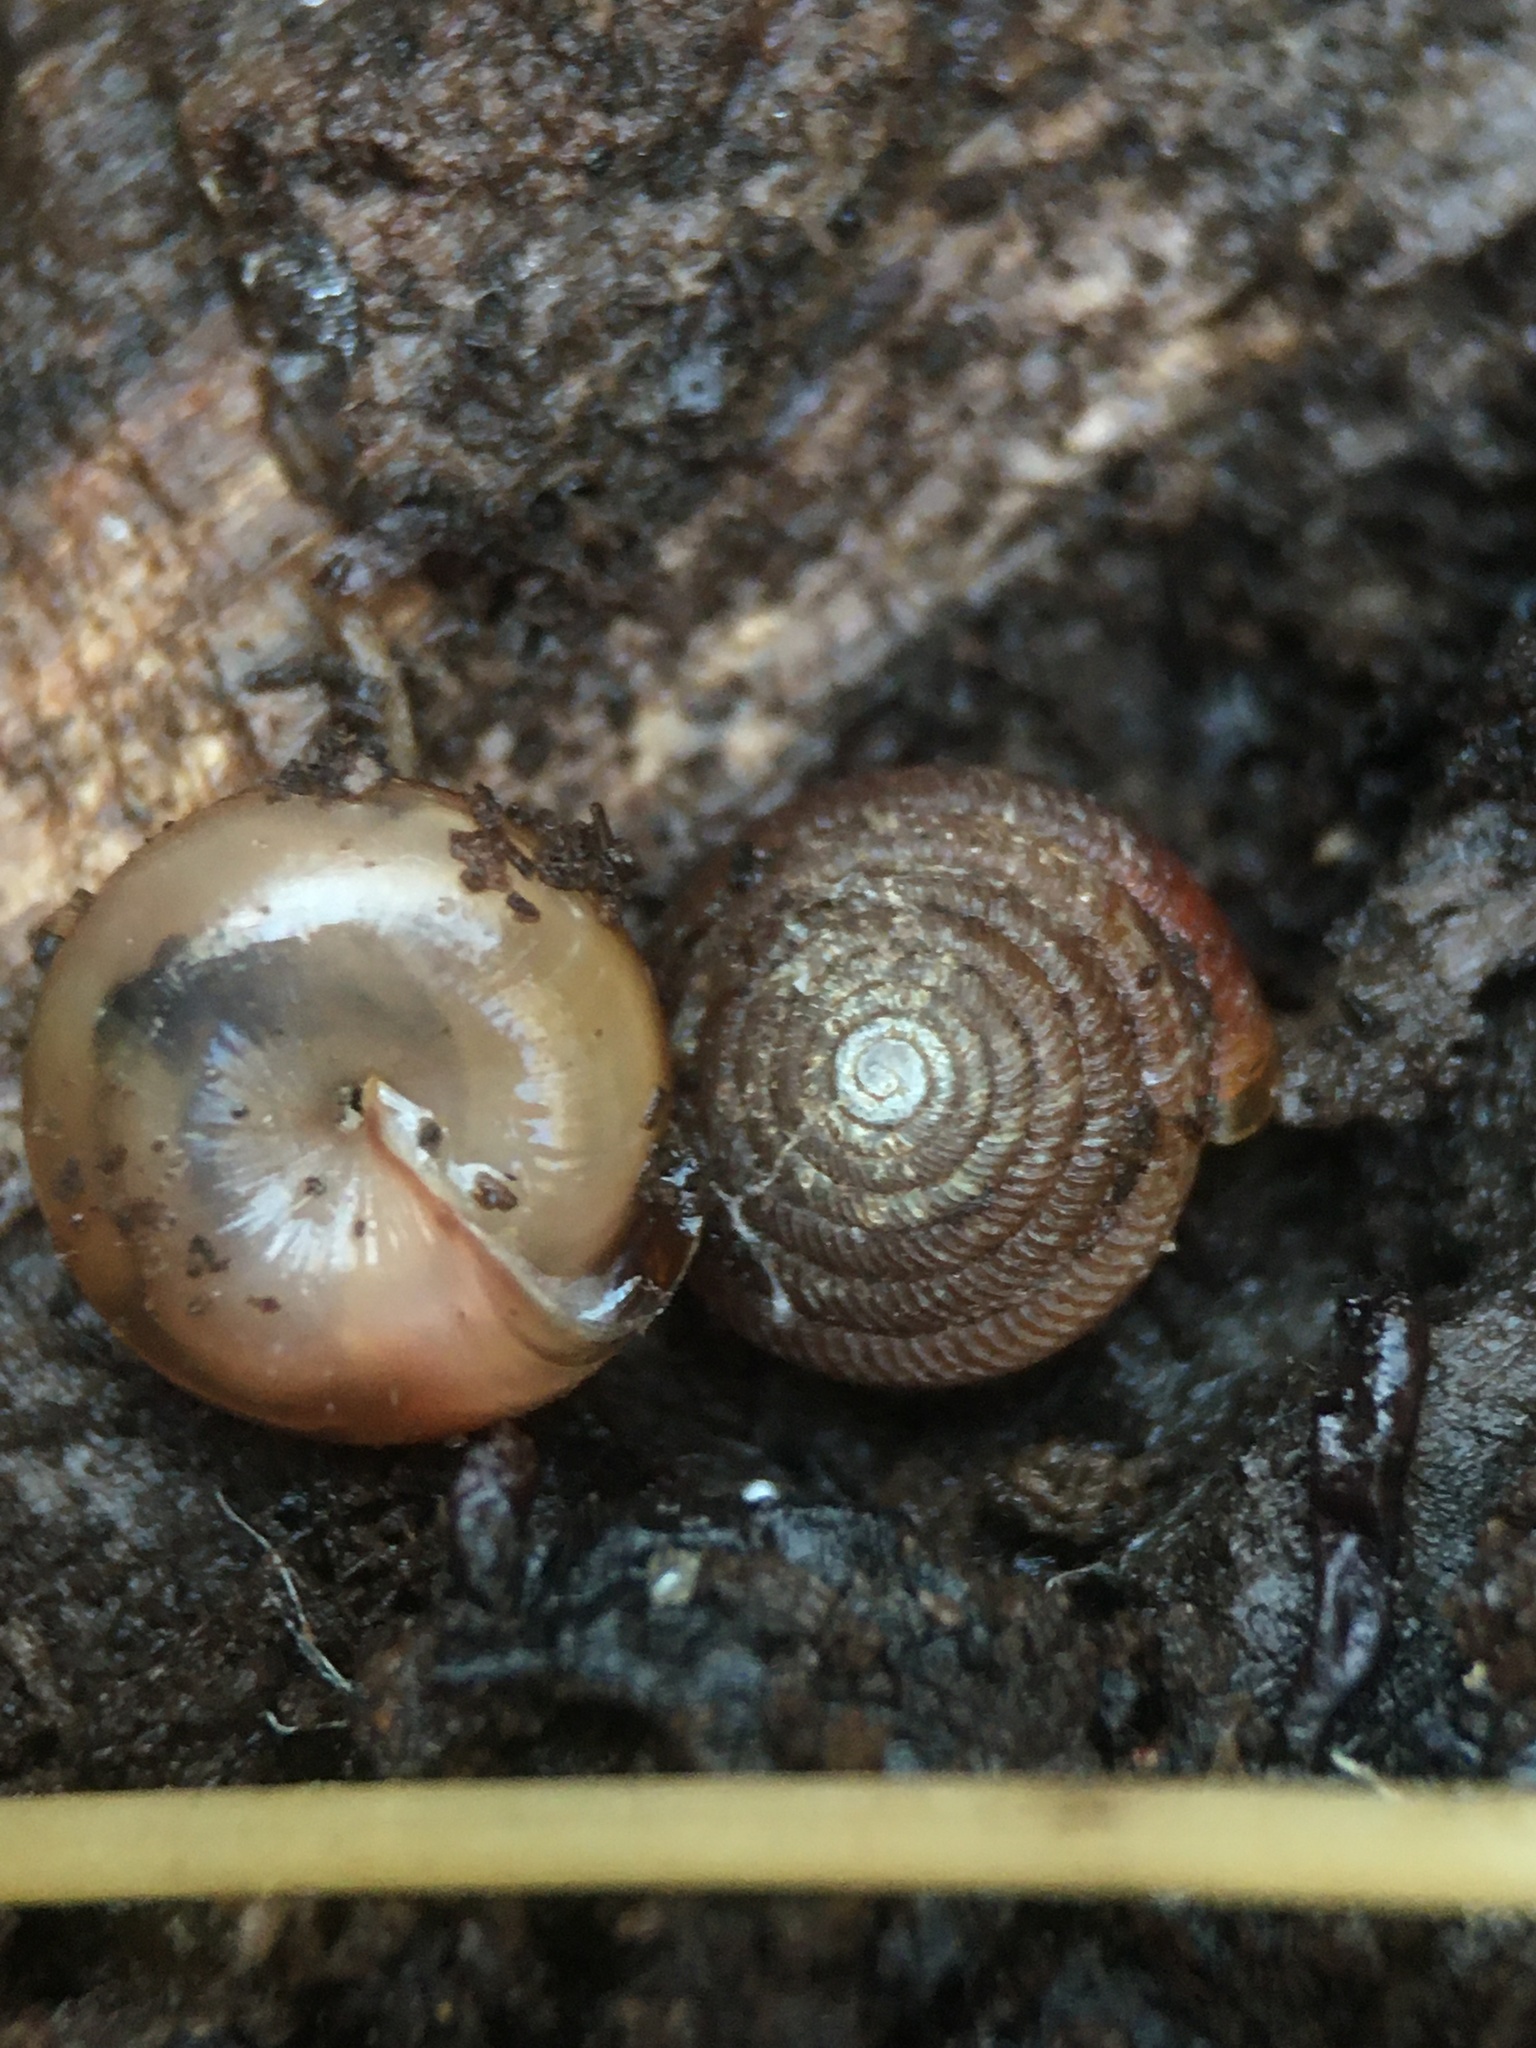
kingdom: Animalia
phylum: Mollusca
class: Gastropoda
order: Stylommatophora
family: Gastrodontidae
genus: Gastrodonta
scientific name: Gastrodonta interna
